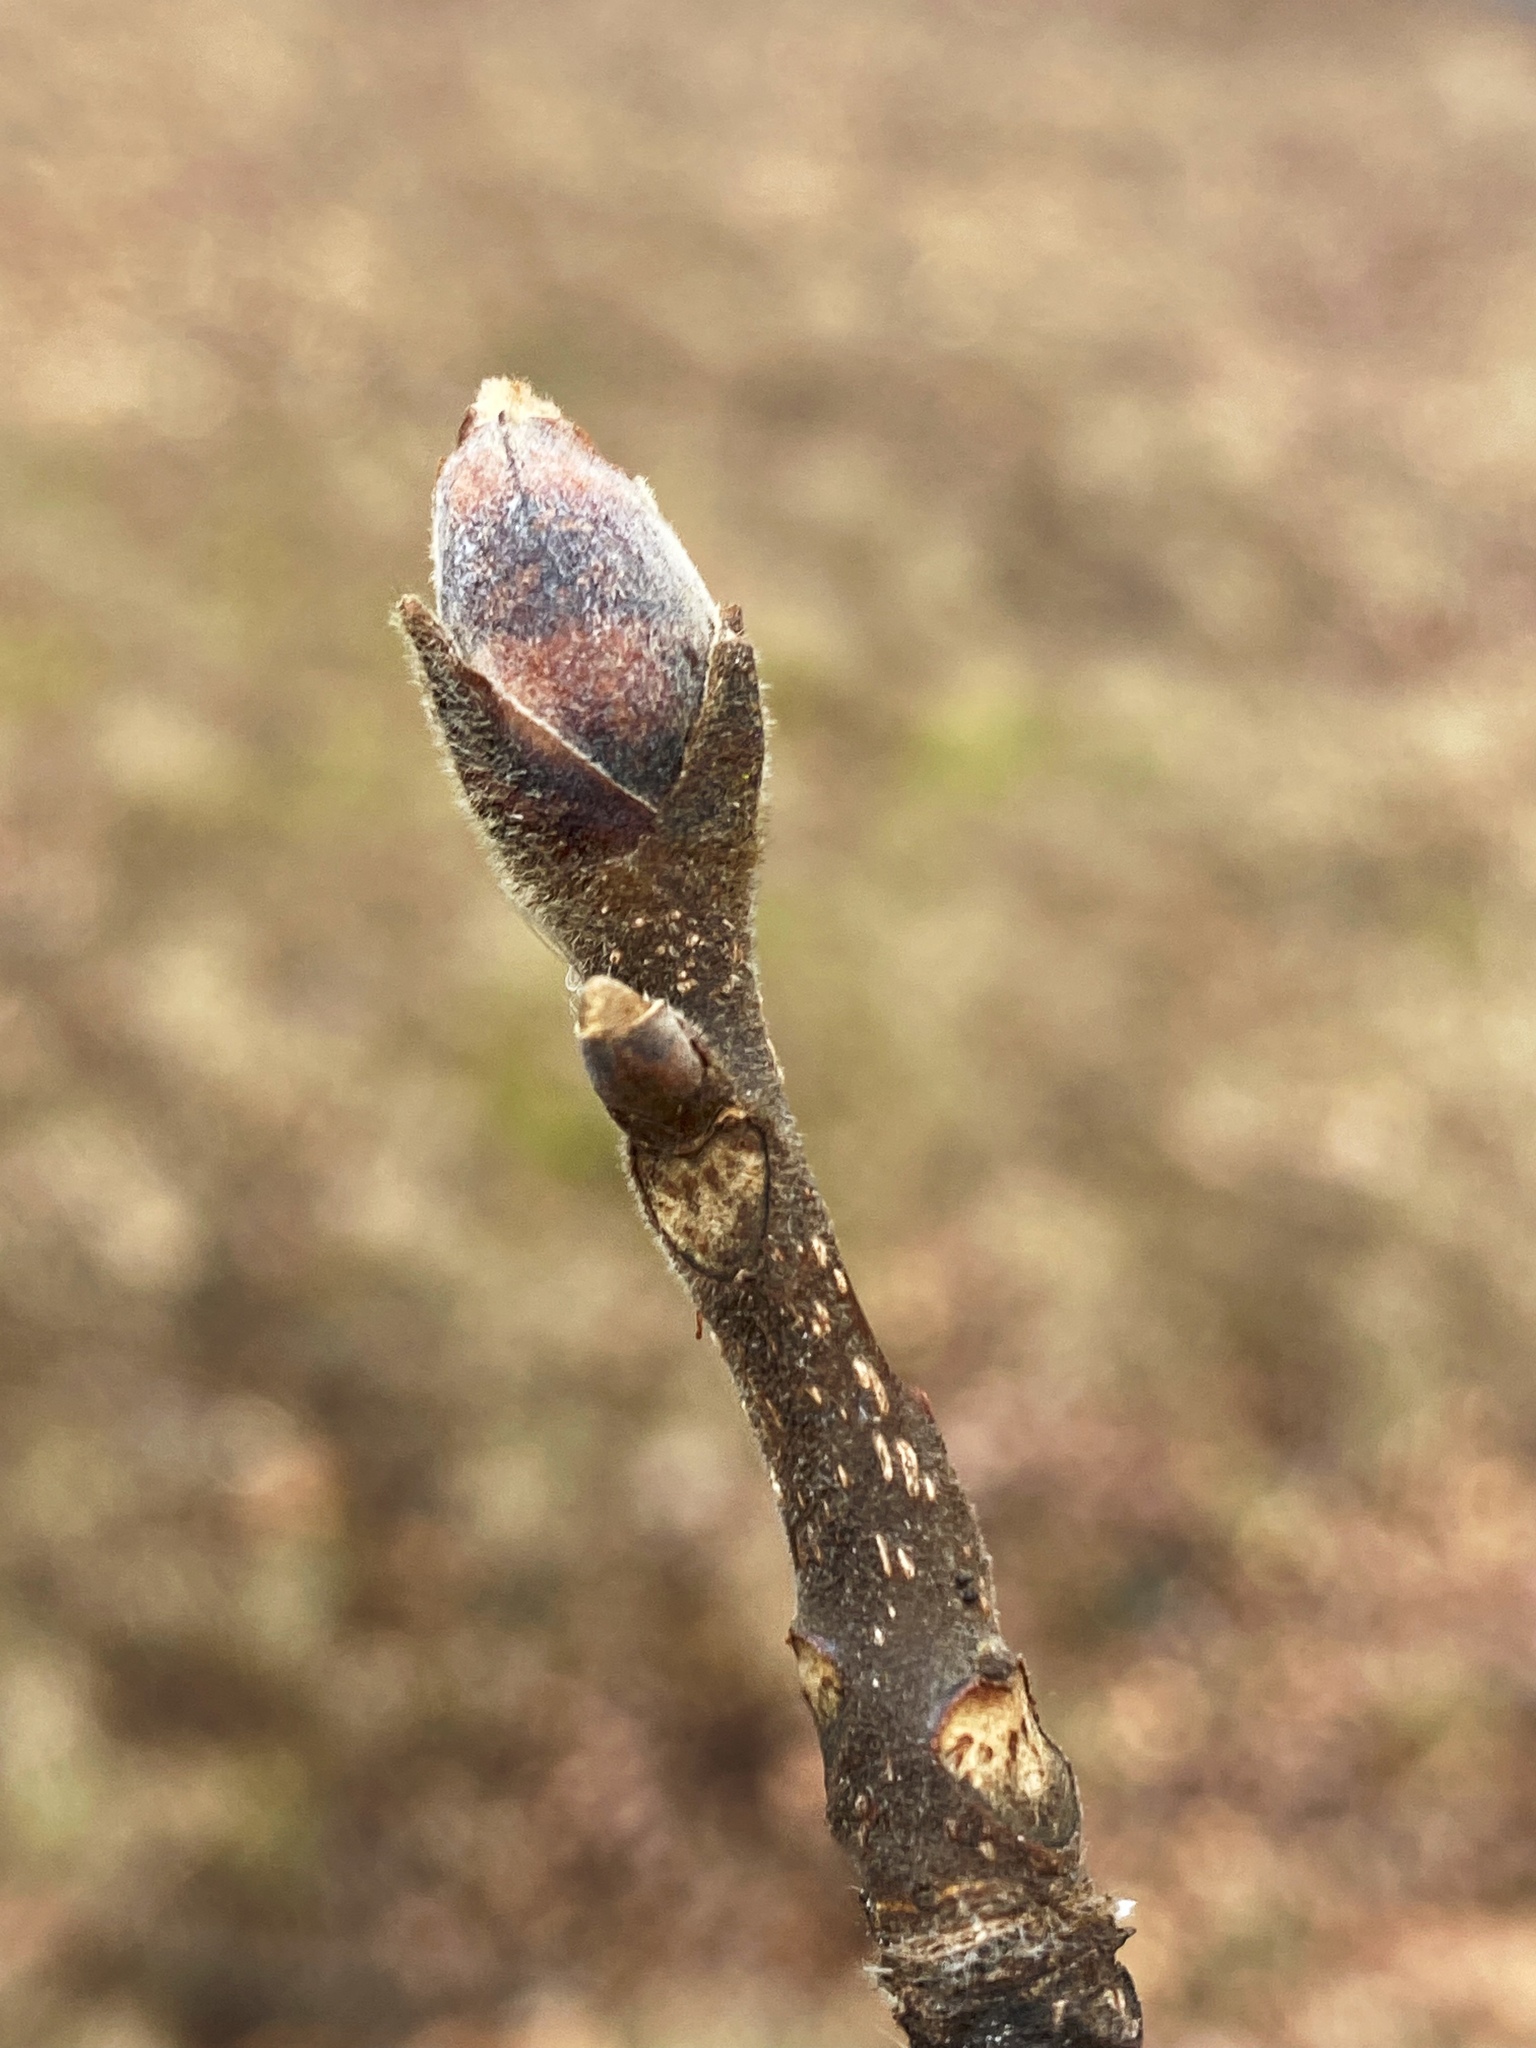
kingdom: Plantae
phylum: Tracheophyta
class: Magnoliopsida
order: Fagales
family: Juglandaceae
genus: Carya
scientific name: Carya ovata
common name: Shagbark hickory
